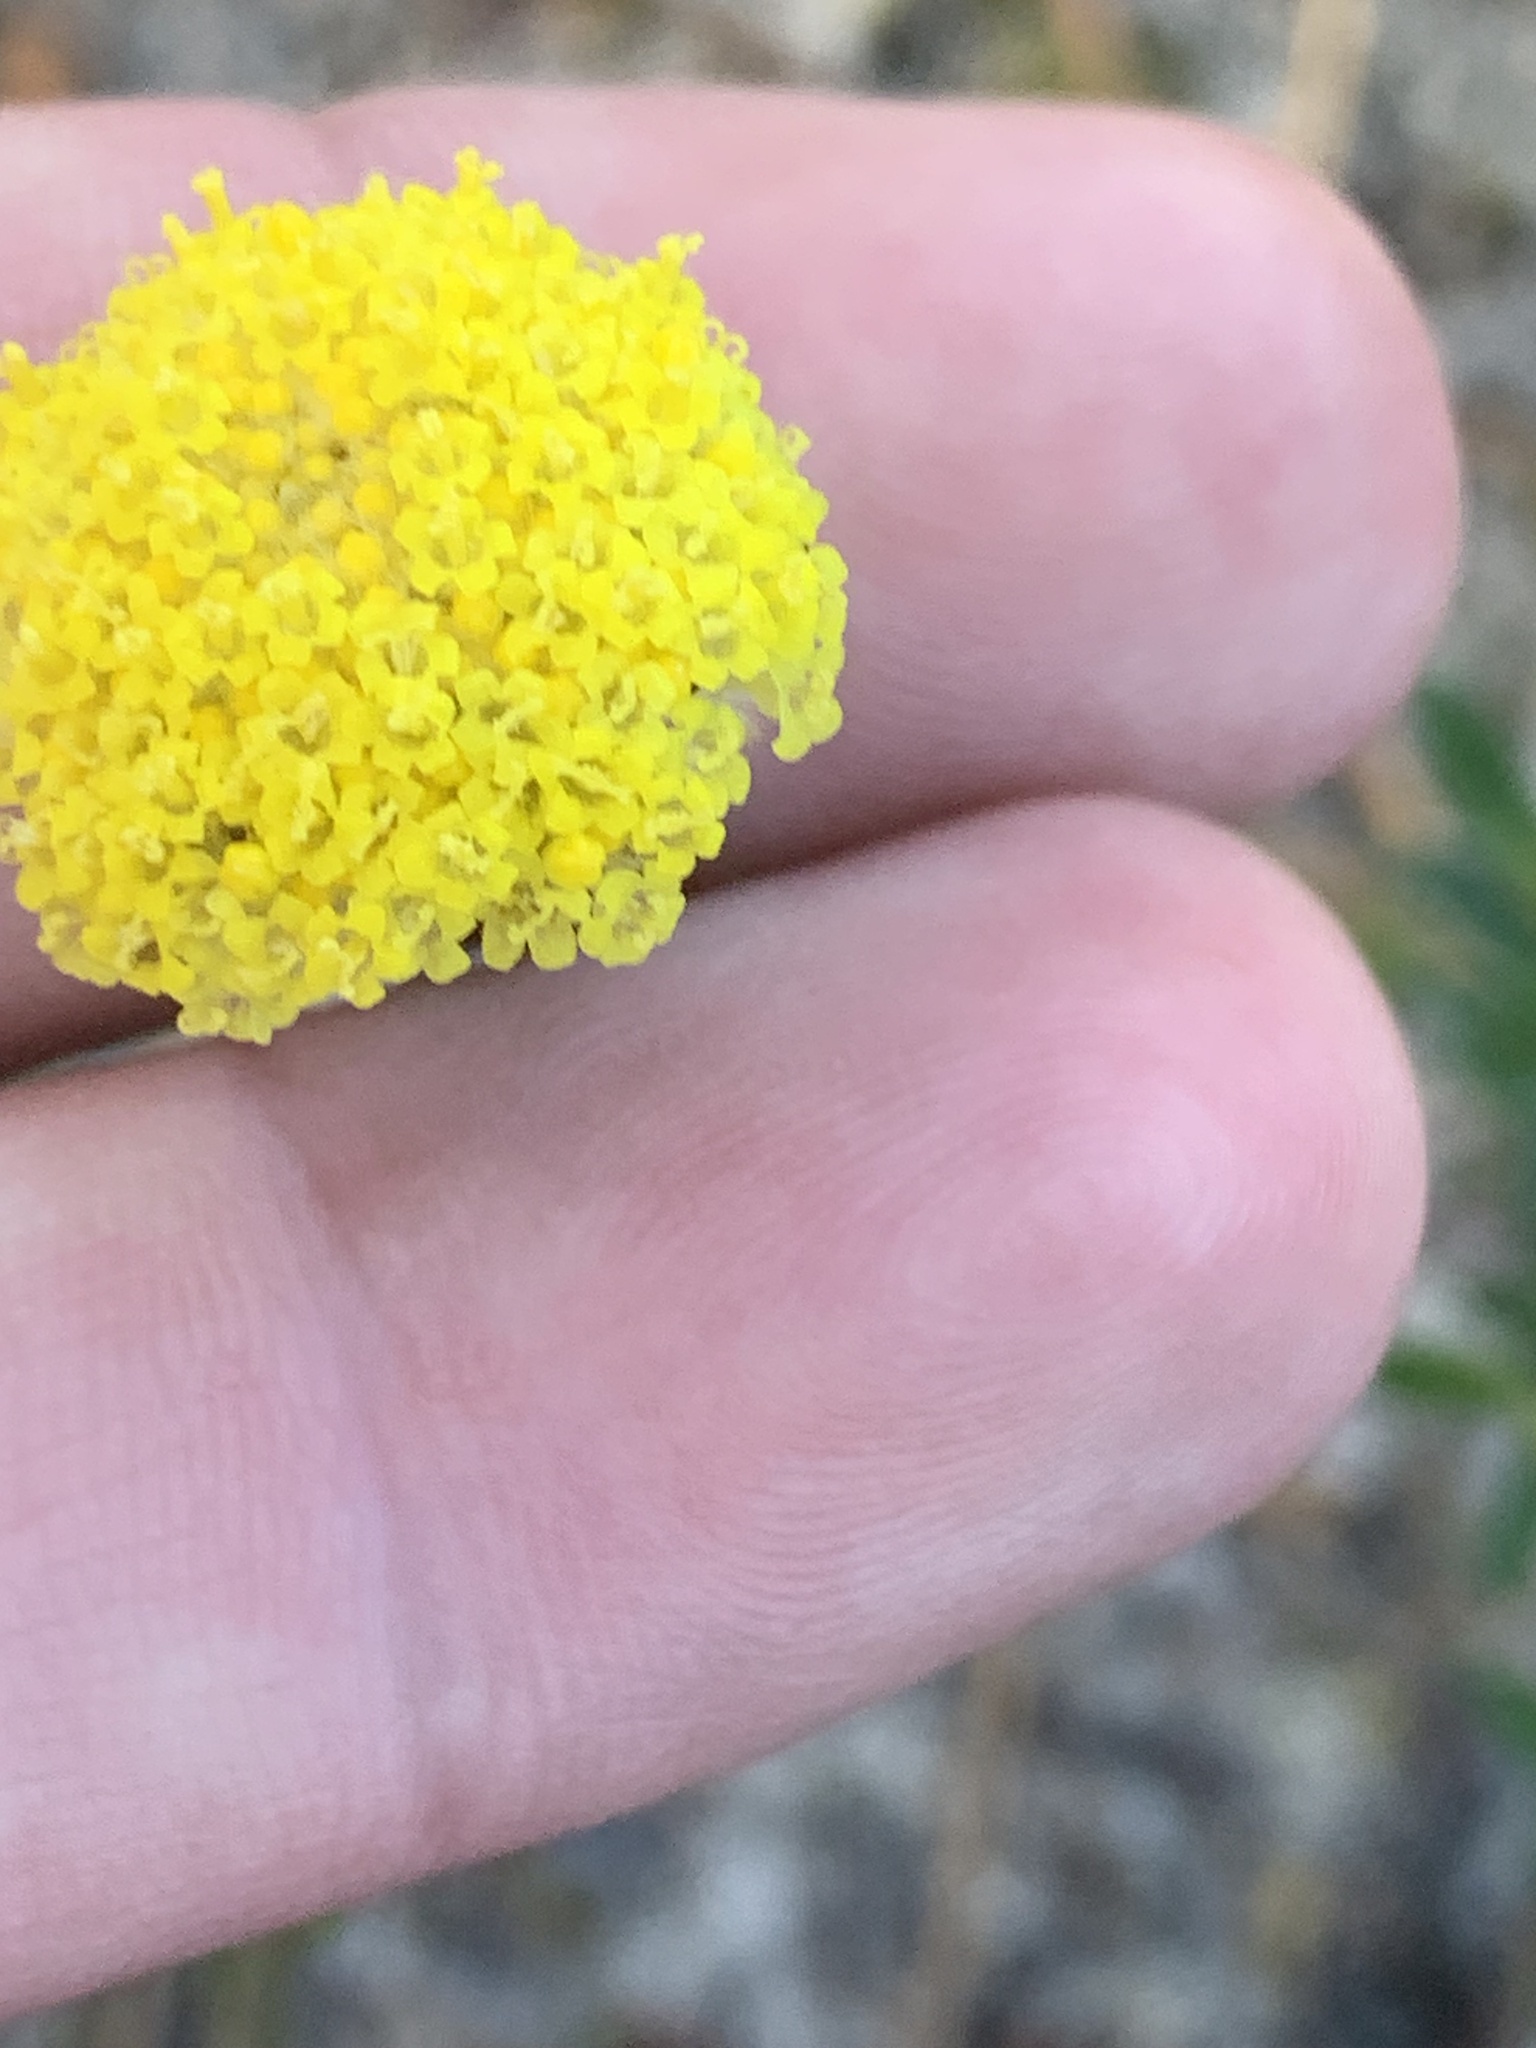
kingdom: Plantae
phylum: Tracheophyta
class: Magnoliopsida
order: Asterales
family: Asteraceae
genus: Craspedia
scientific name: Craspedia variabilis
